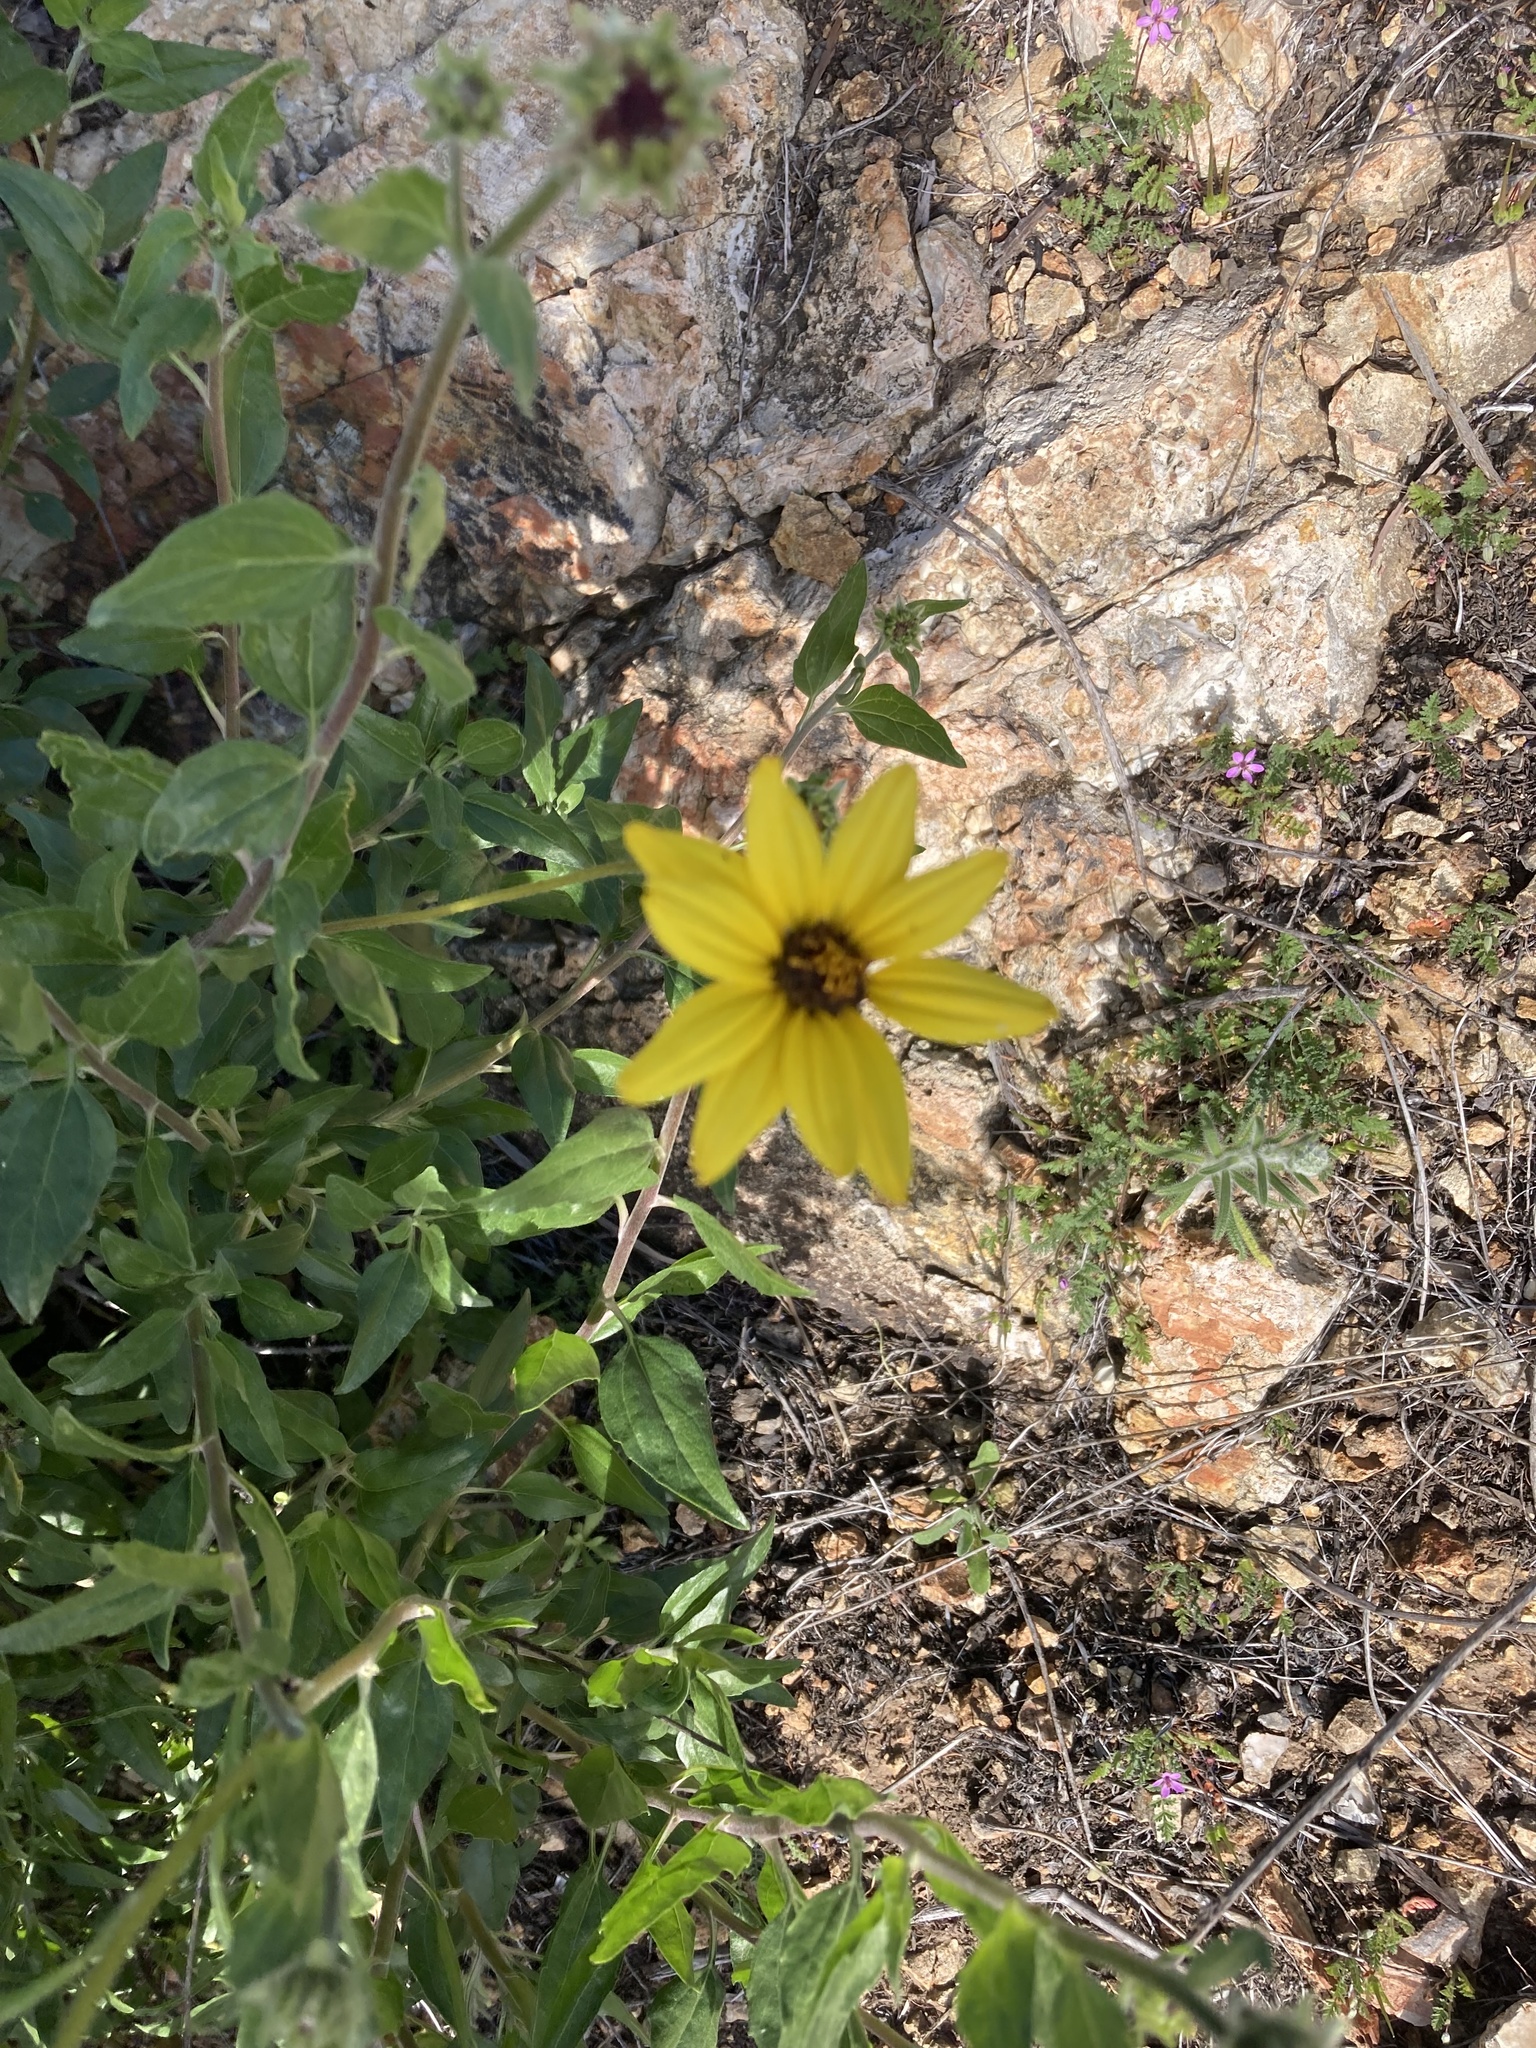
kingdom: Plantae
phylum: Tracheophyta
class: Magnoliopsida
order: Asterales
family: Asteraceae
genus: Encelia
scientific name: Encelia californica
